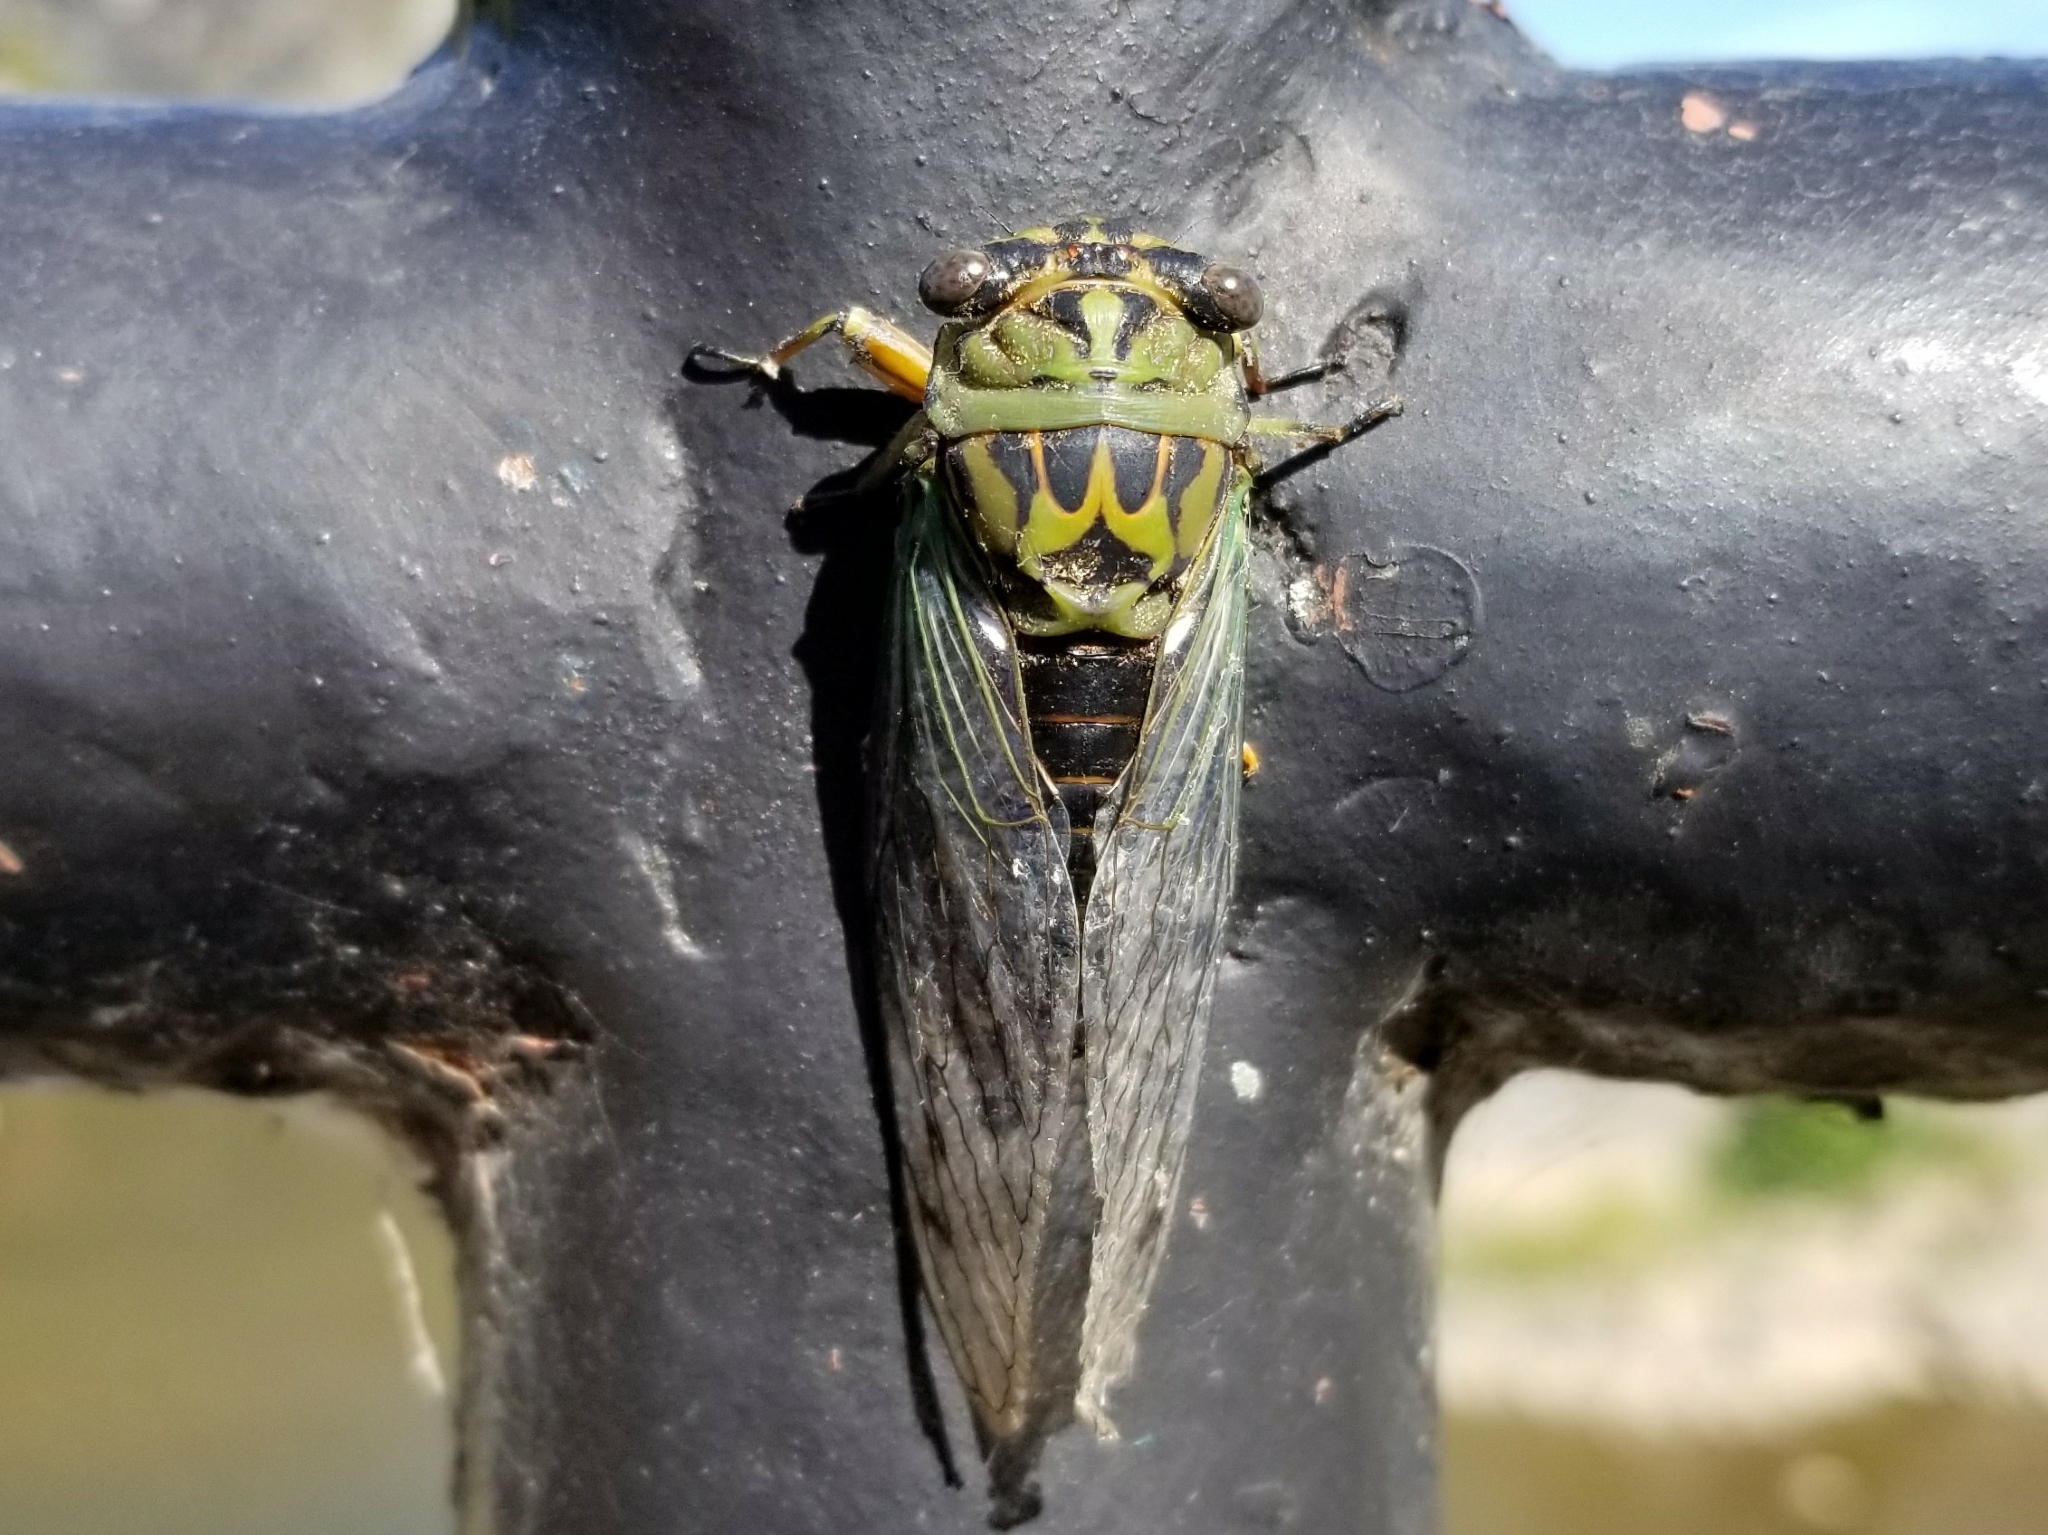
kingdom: Animalia
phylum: Arthropoda
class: Insecta
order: Hemiptera
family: Cicadidae
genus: Neotibicen
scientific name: Neotibicen winnemanna
